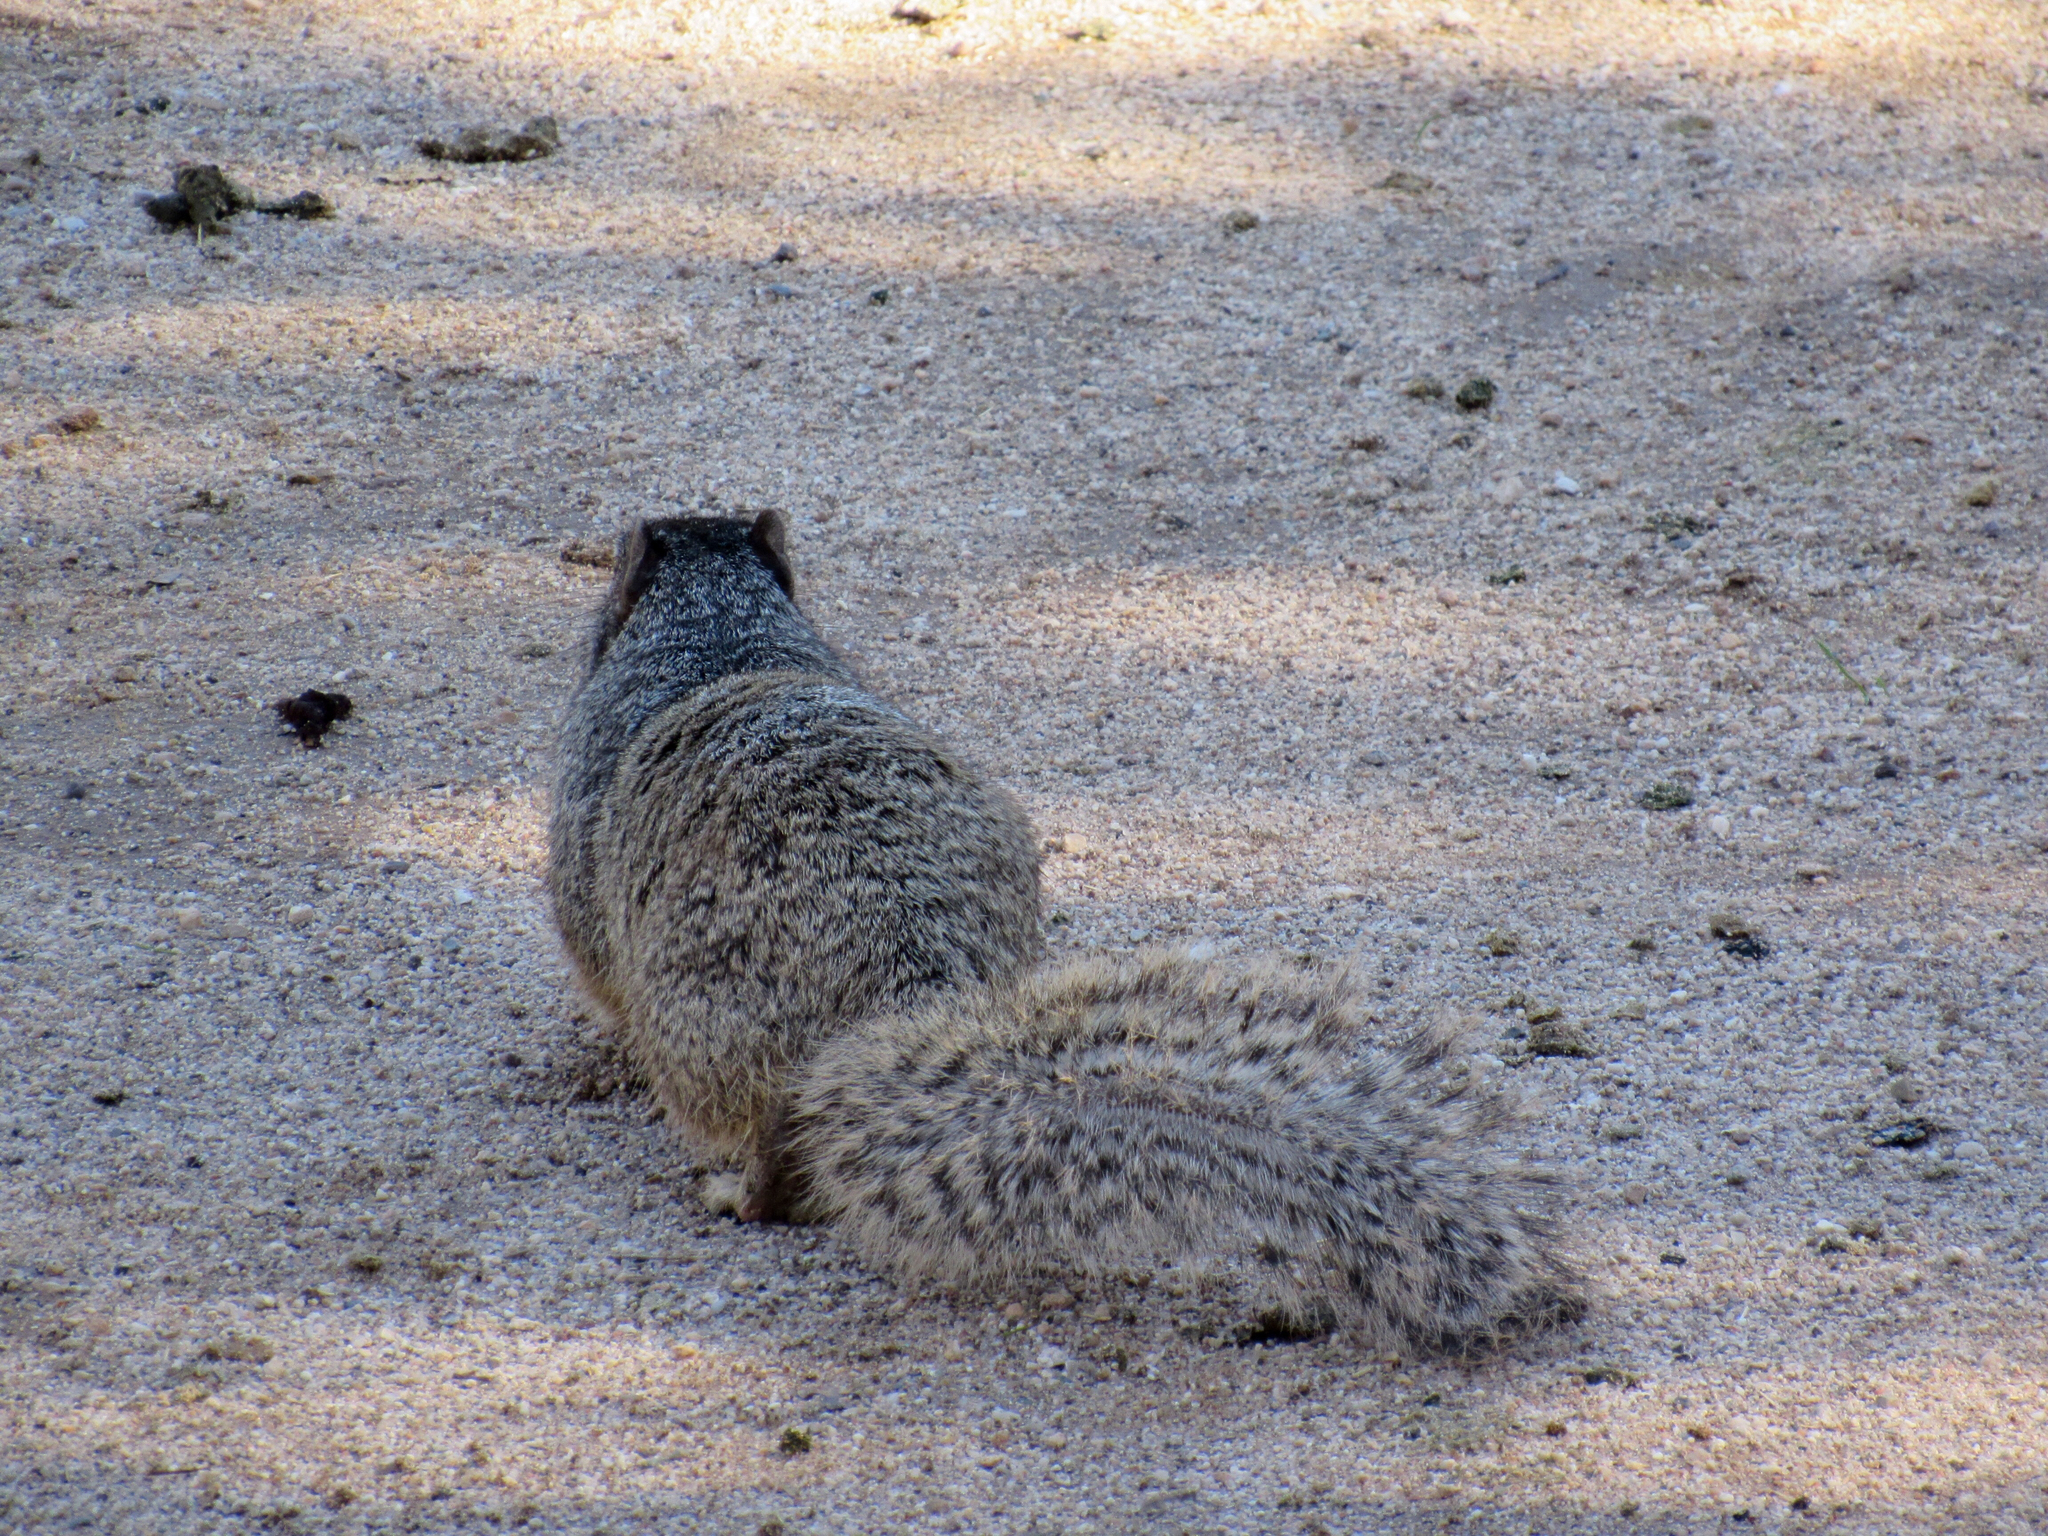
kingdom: Animalia
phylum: Chordata
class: Mammalia
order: Rodentia
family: Sciuridae
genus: Otospermophilus
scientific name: Otospermophilus variegatus
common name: Rock squirrel
